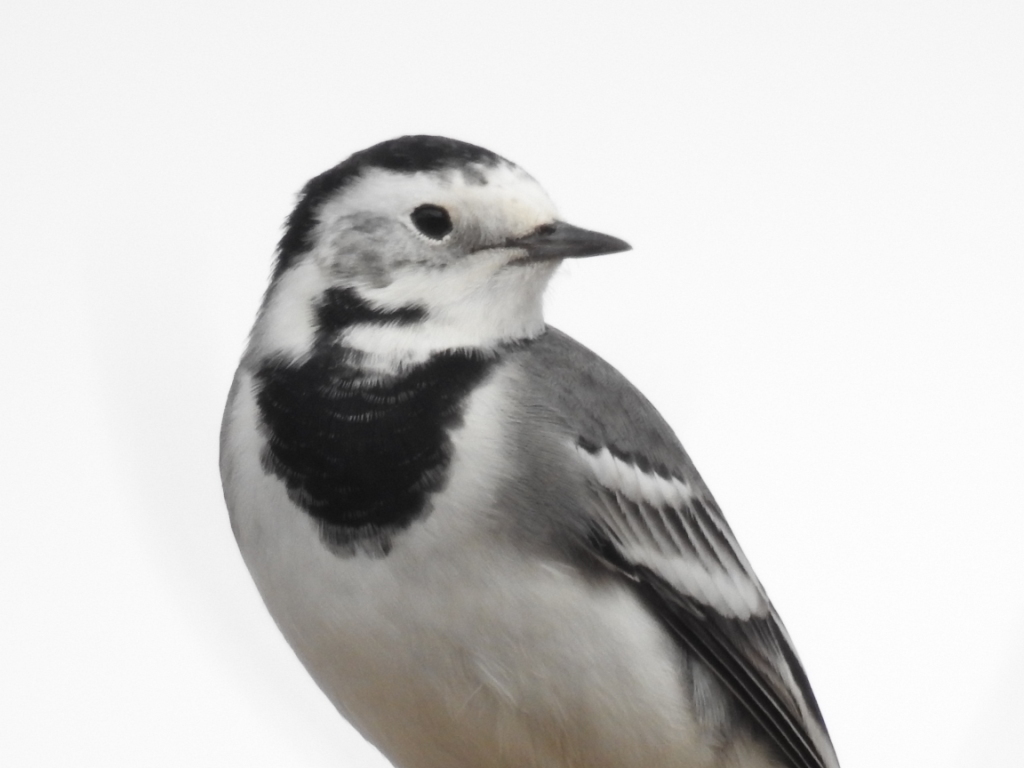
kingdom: Animalia
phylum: Chordata
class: Aves
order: Passeriformes
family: Motacillidae
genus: Motacilla
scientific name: Motacilla alba
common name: White wagtail
